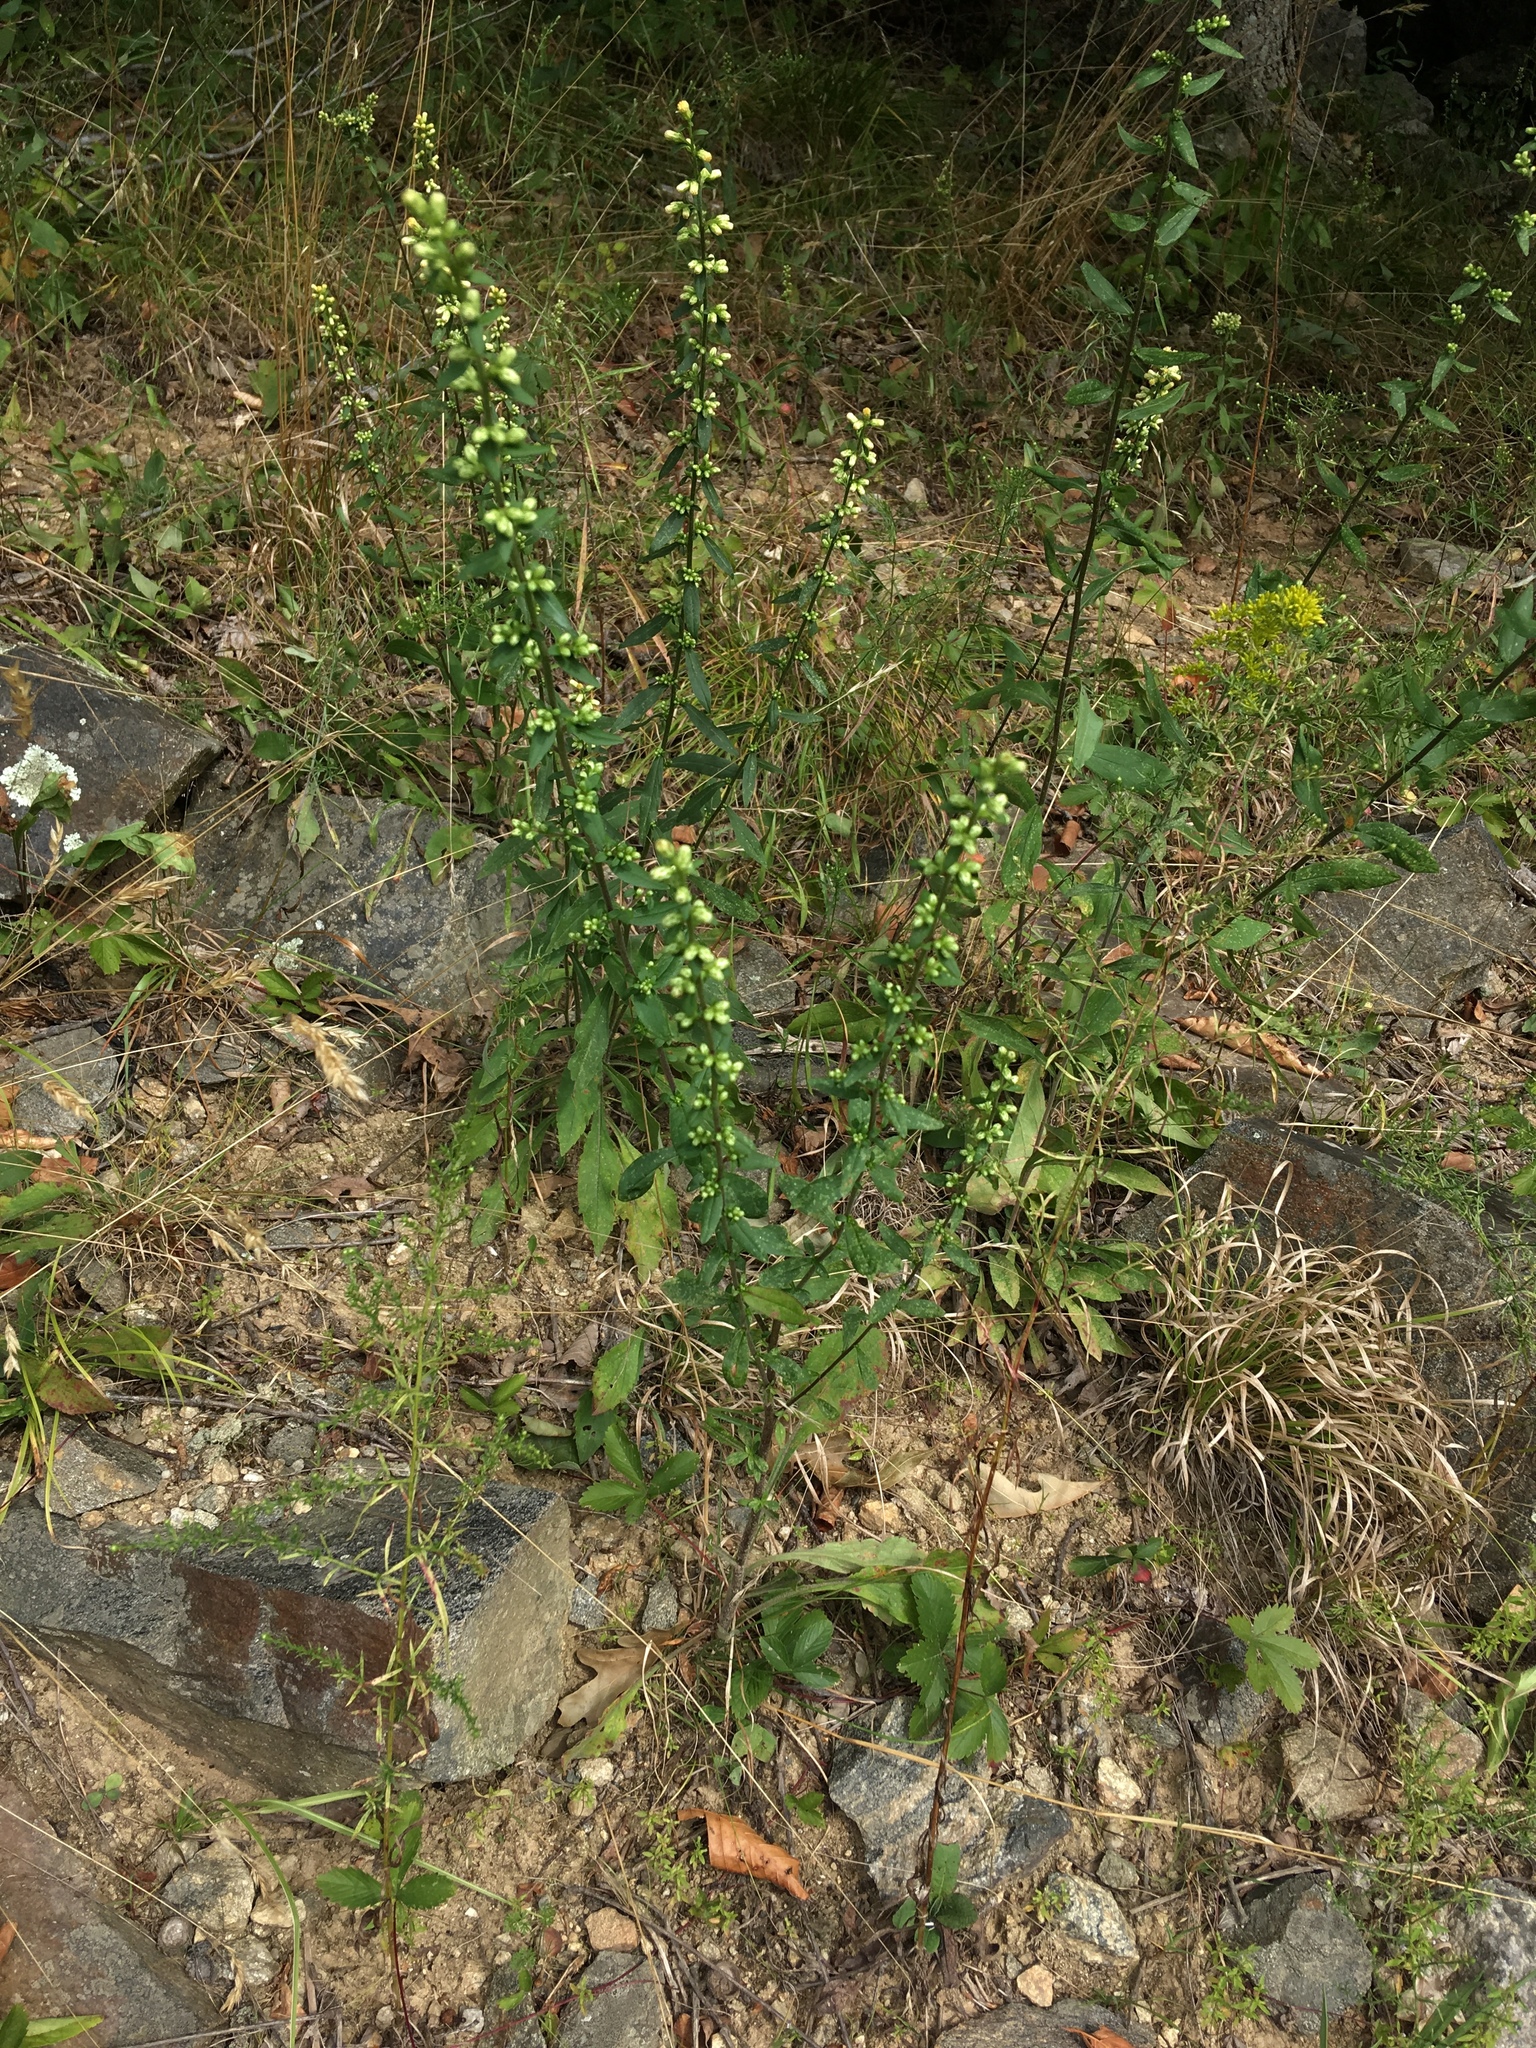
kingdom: Plantae
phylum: Tracheophyta
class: Magnoliopsida
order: Asterales
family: Asteraceae
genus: Solidago
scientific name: Solidago bicolor
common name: Silverrod
